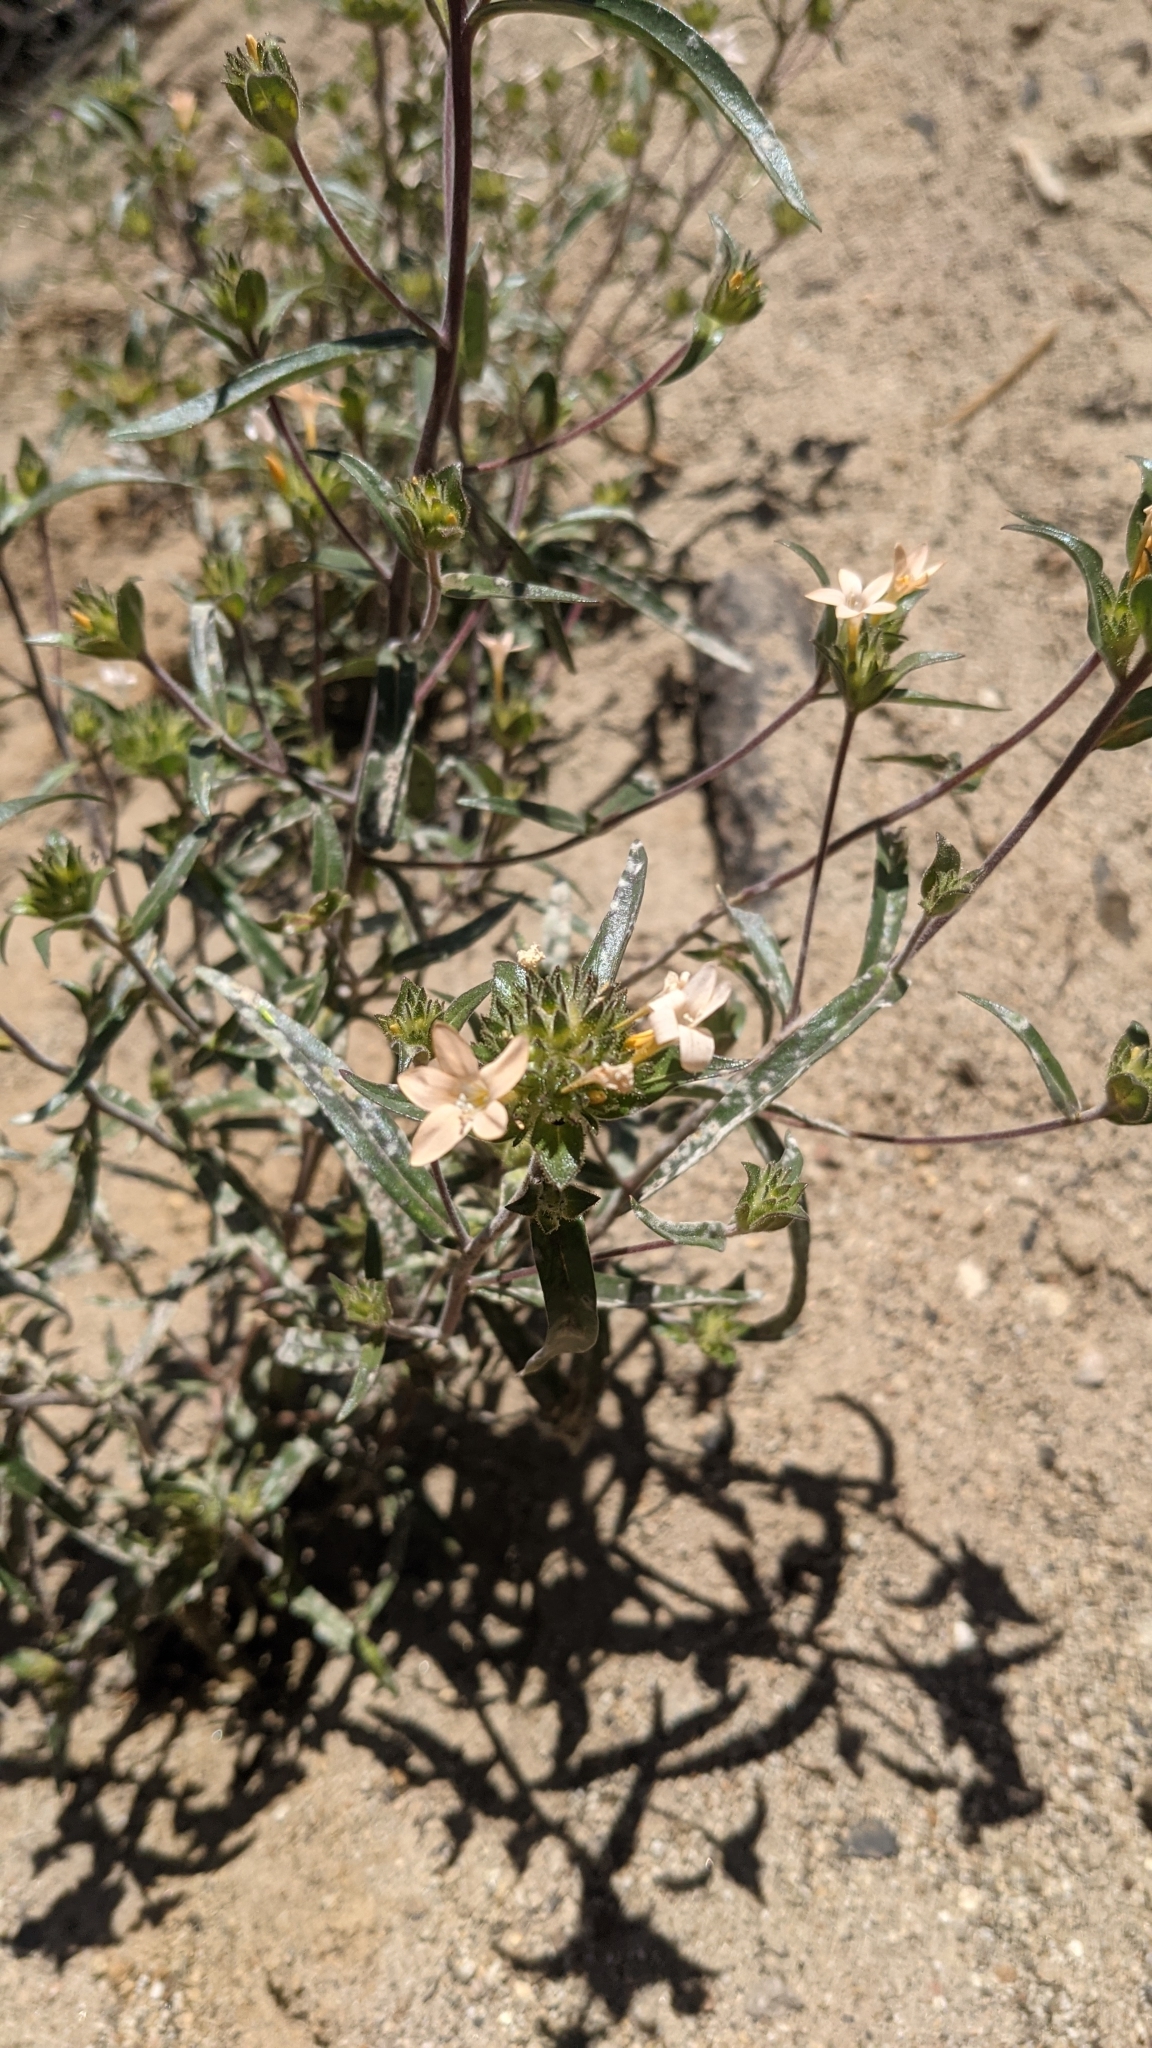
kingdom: Plantae
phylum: Tracheophyta
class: Magnoliopsida
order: Ericales
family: Polemoniaceae
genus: Collomia
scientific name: Collomia grandiflora
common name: California strawflower
